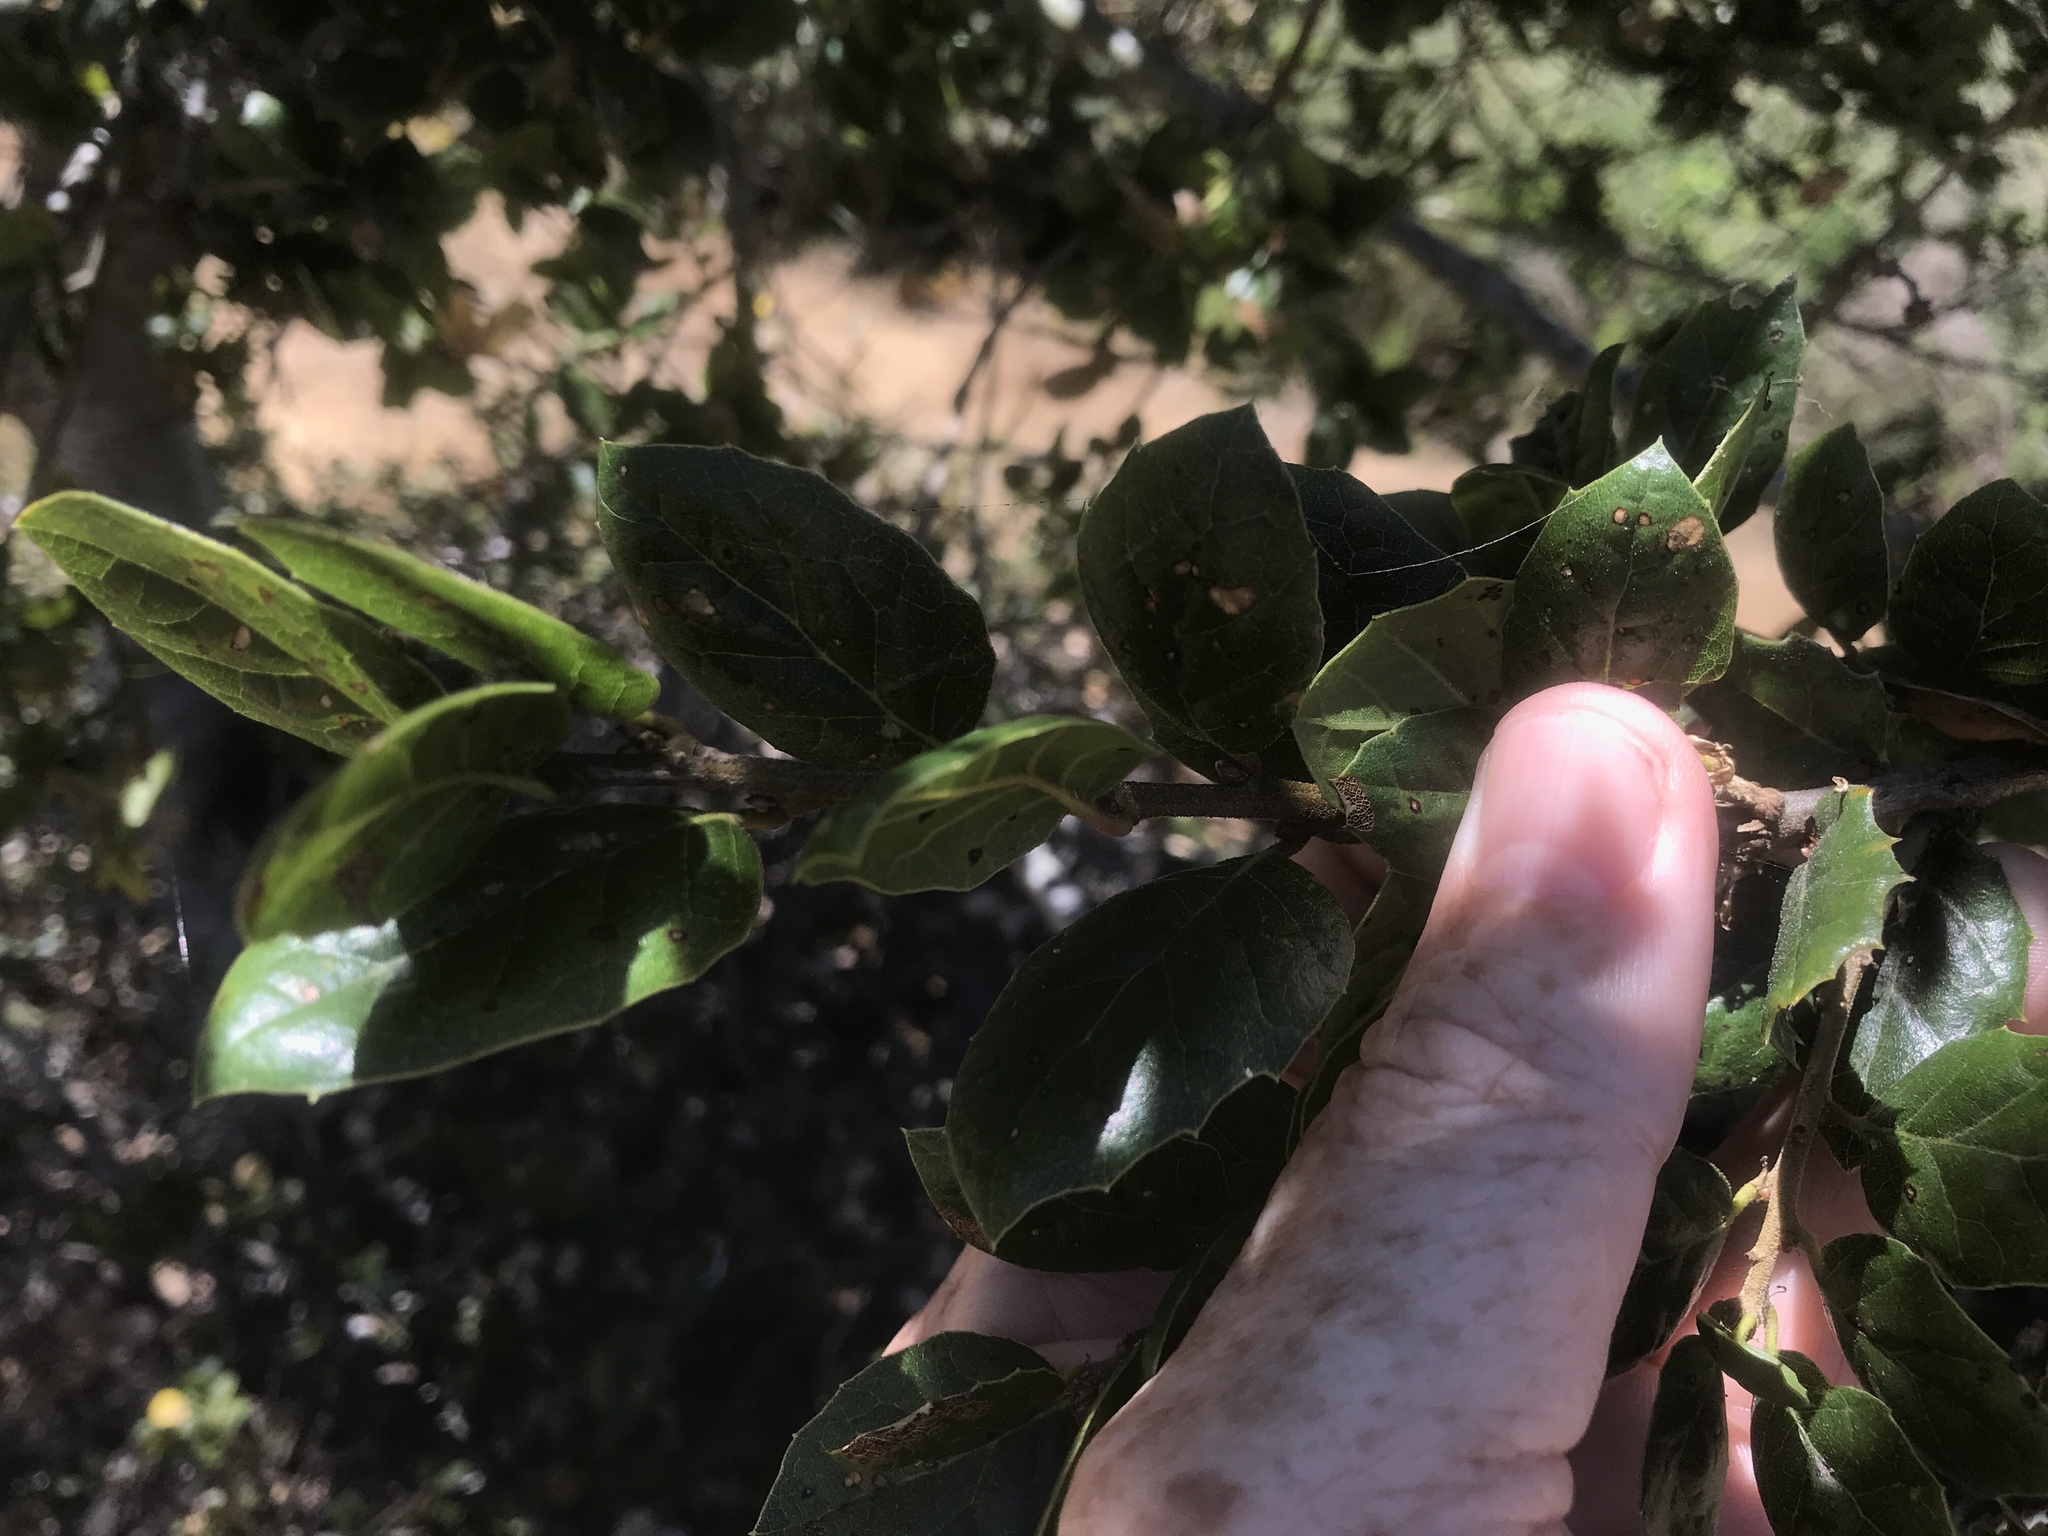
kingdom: Plantae
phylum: Tracheophyta
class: Magnoliopsida
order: Fagales
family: Fagaceae
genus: Quercus
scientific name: Quercus agrifolia
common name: California live oak
